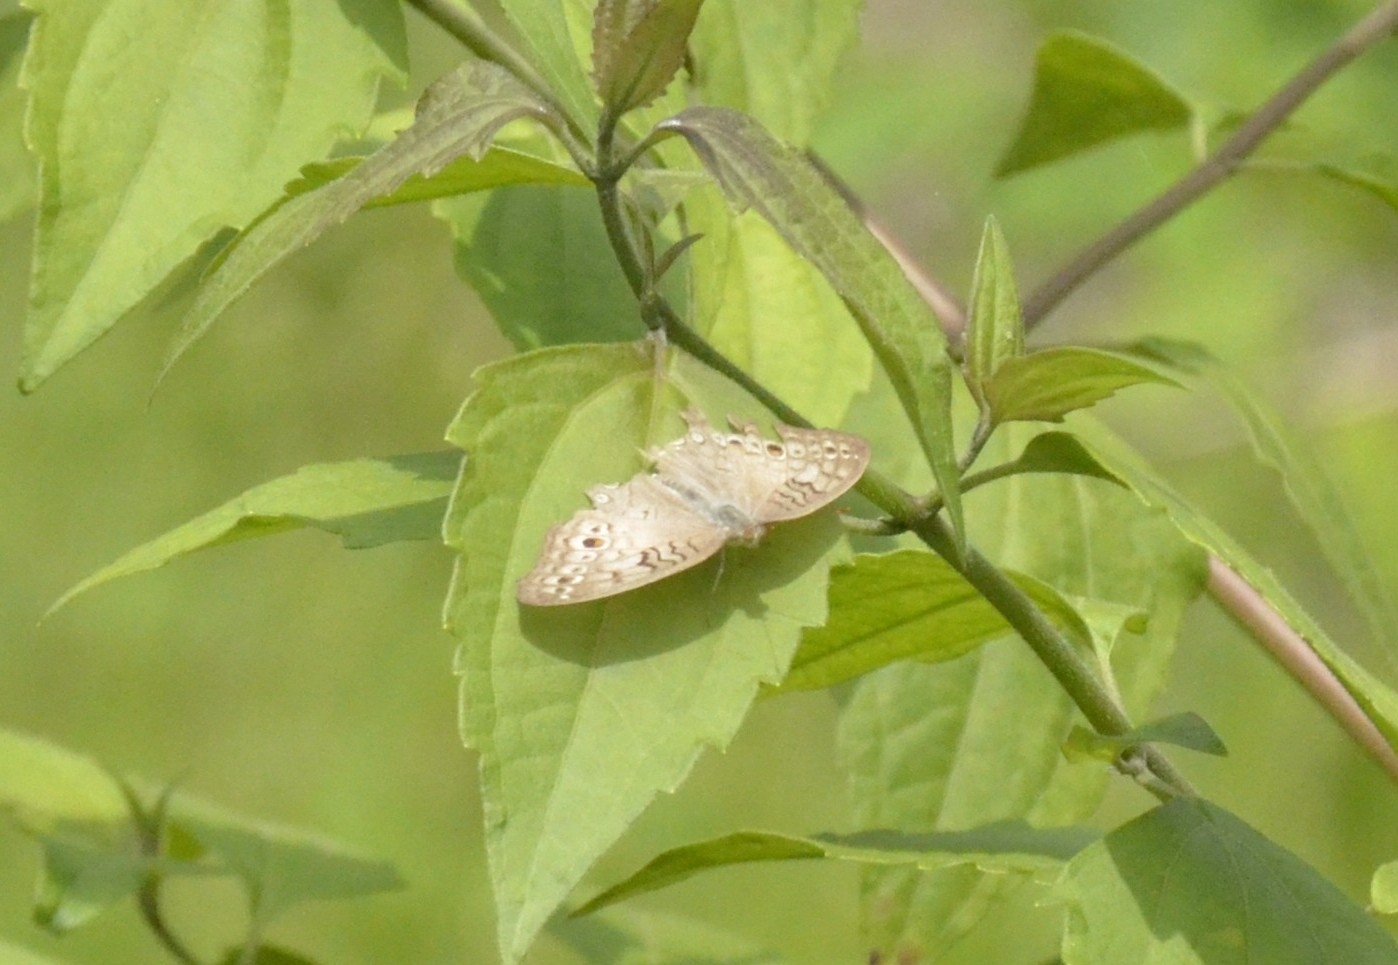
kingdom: Animalia
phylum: Arthropoda
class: Insecta
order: Lepidoptera
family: Nymphalidae
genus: Junonia
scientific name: Junonia atlites
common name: Grey pansy
